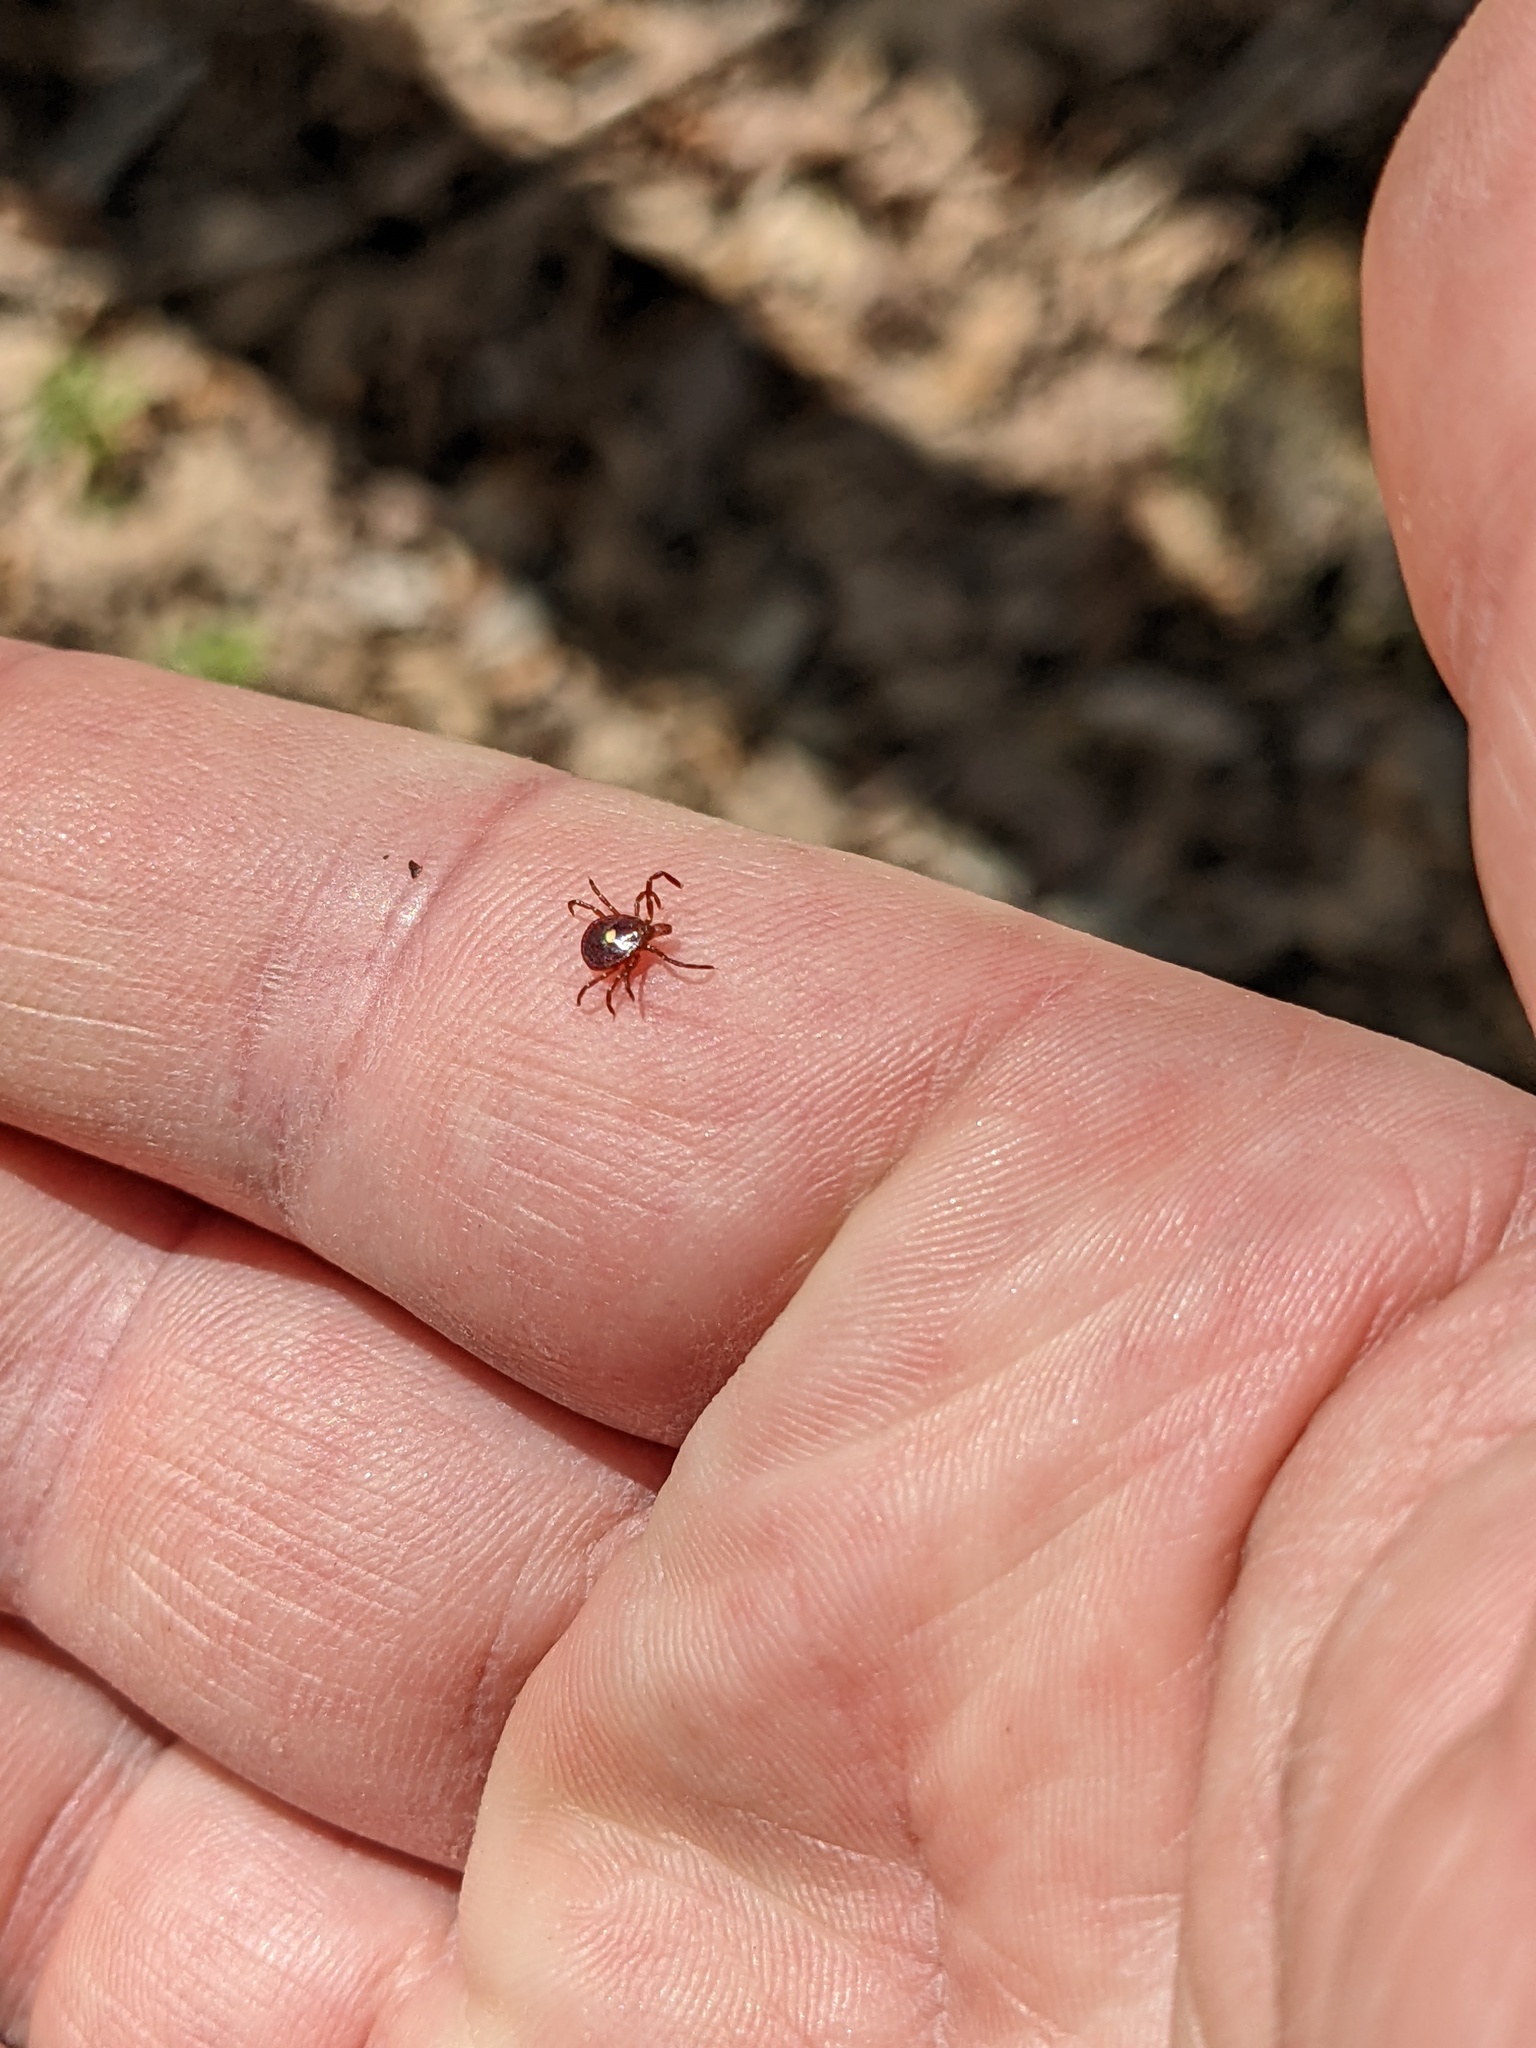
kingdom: Animalia
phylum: Arthropoda
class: Arachnida
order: Ixodida
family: Ixodidae
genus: Amblyomma
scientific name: Amblyomma americanum
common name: Lone star tick
